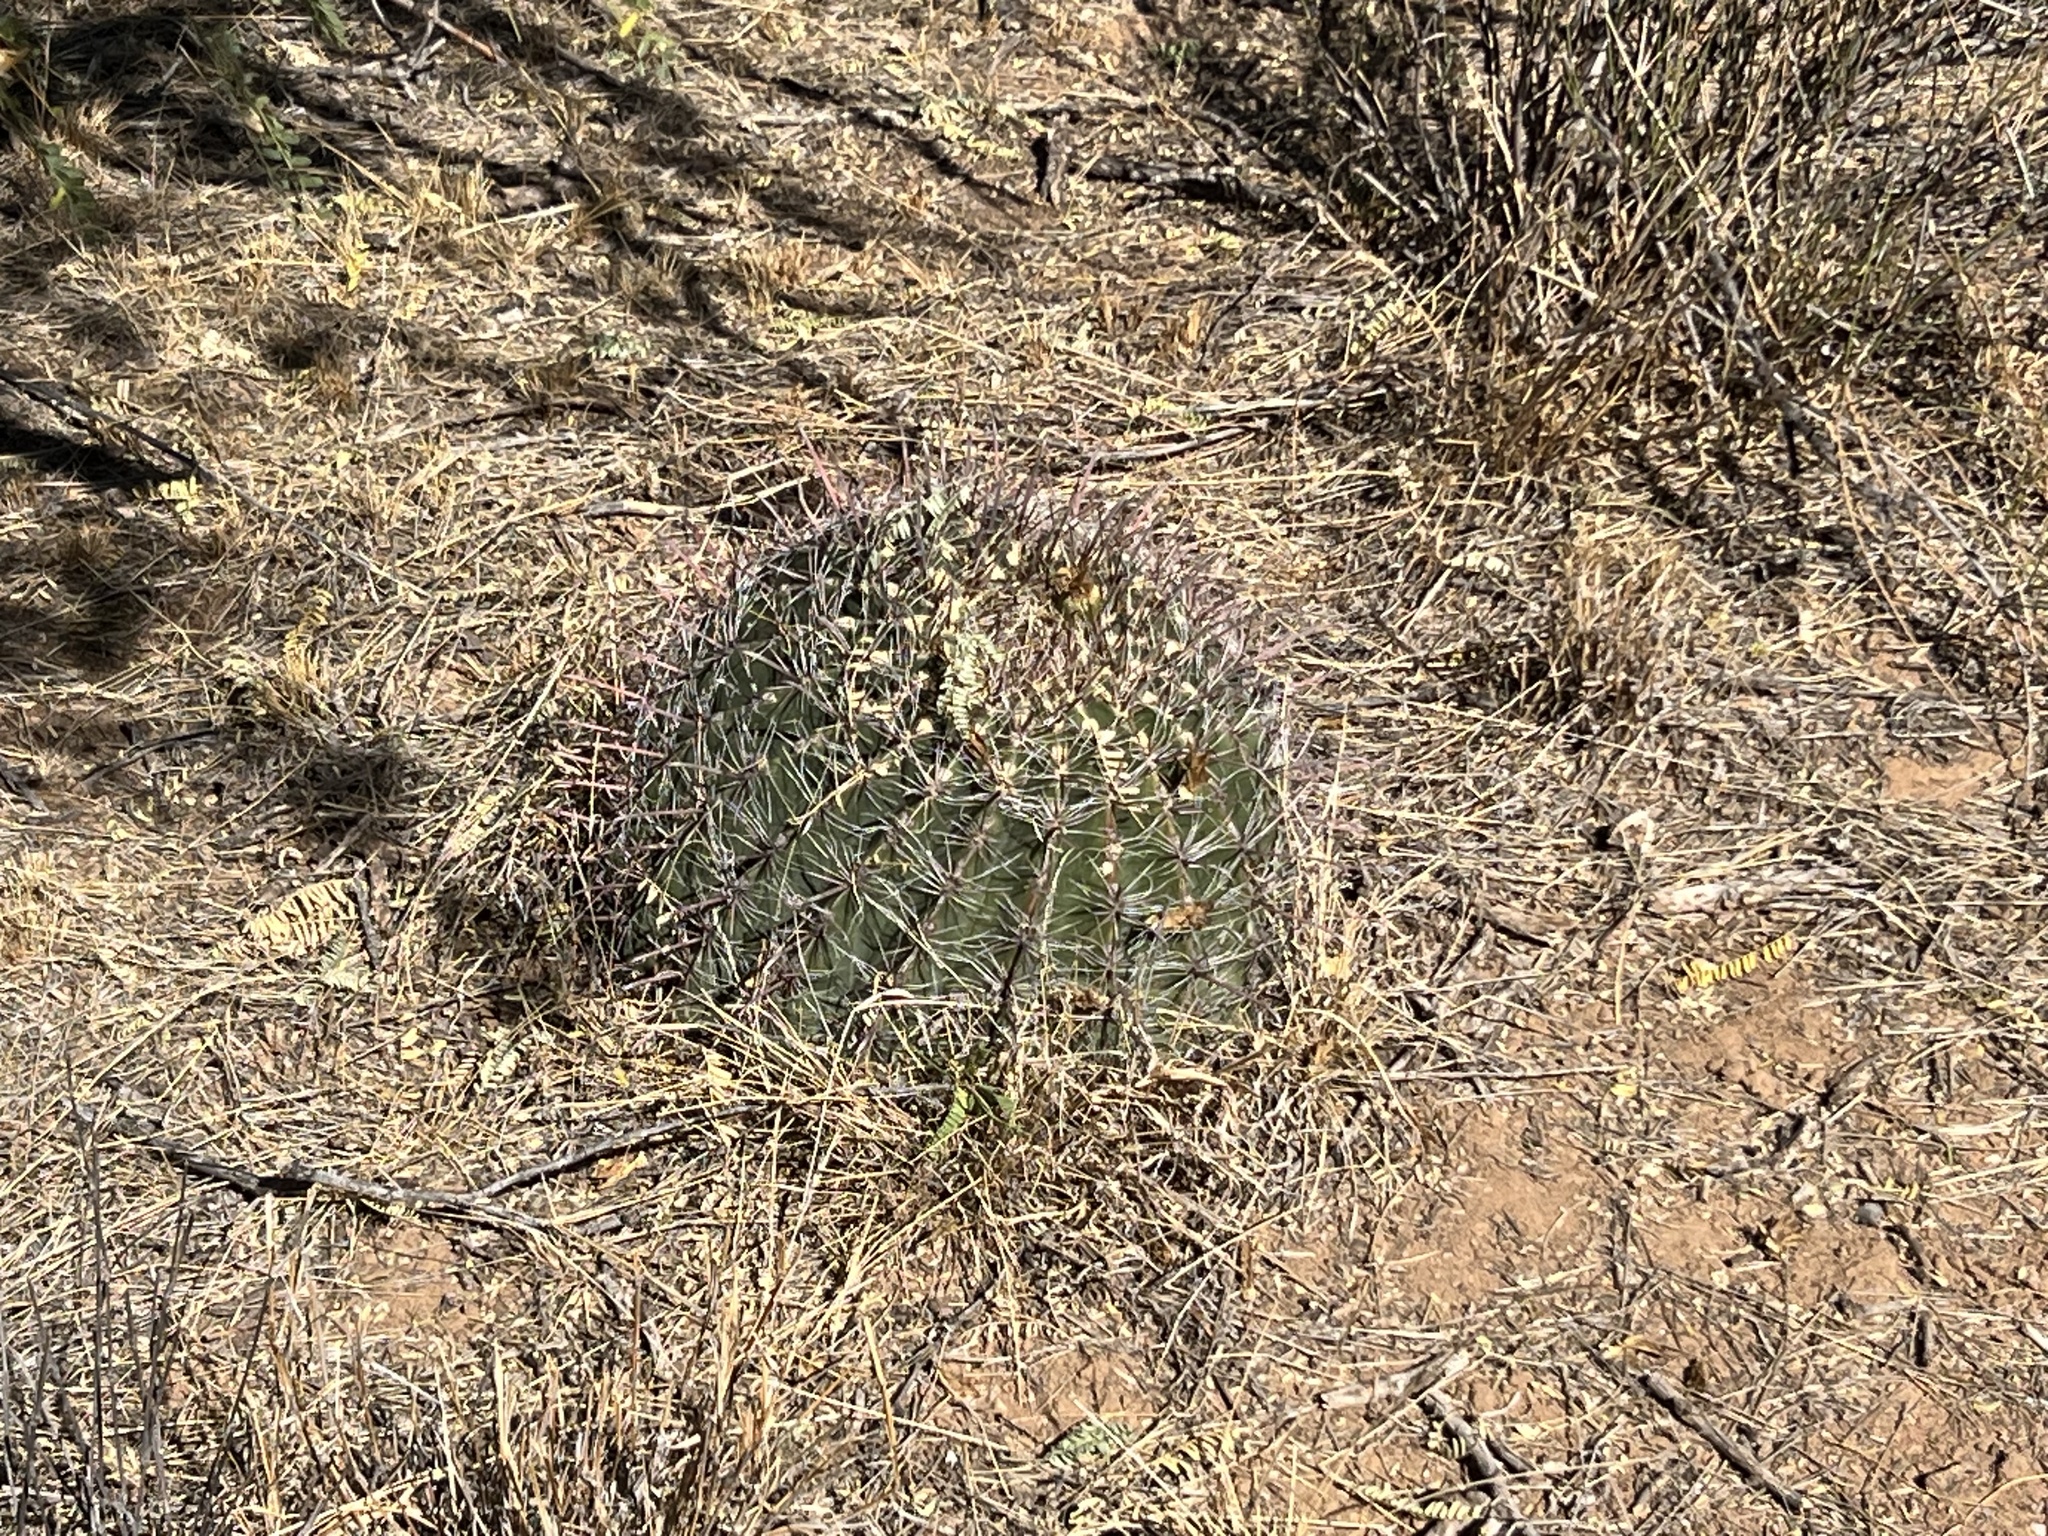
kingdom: Plantae
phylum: Tracheophyta
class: Magnoliopsida
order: Caryophyllales
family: Cactaceae
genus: Ferocactus
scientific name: Ferocactus wislizeni
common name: Candy barrel cactus
